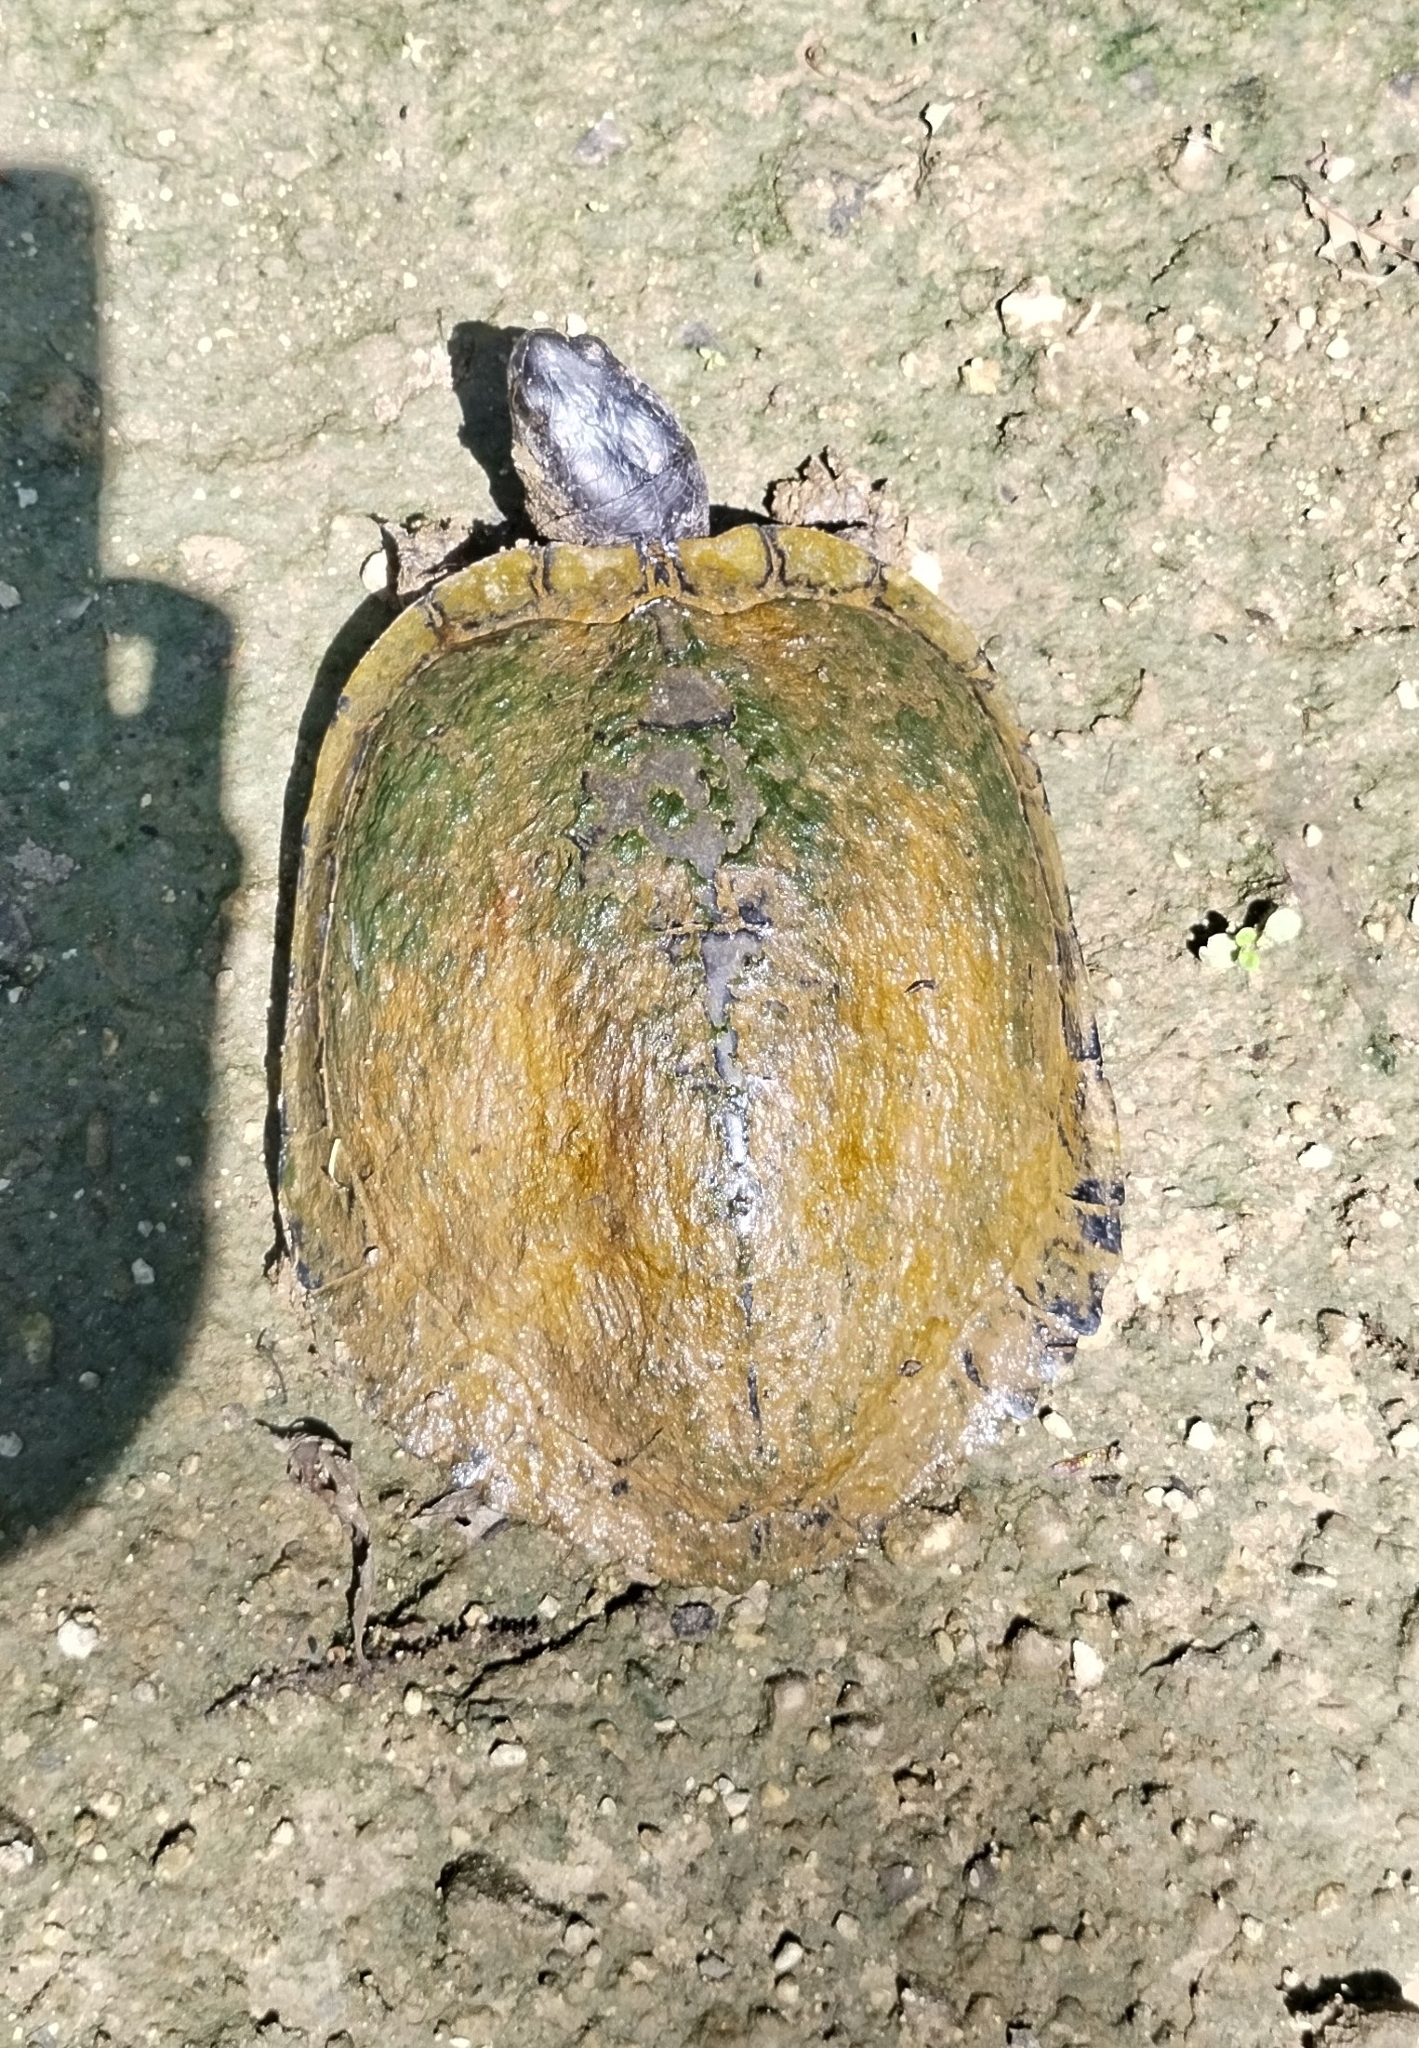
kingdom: Animalia
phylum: Chordata
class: Testudines
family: Emydidae
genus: Trachemys
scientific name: Trachemys scripta
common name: Slider
